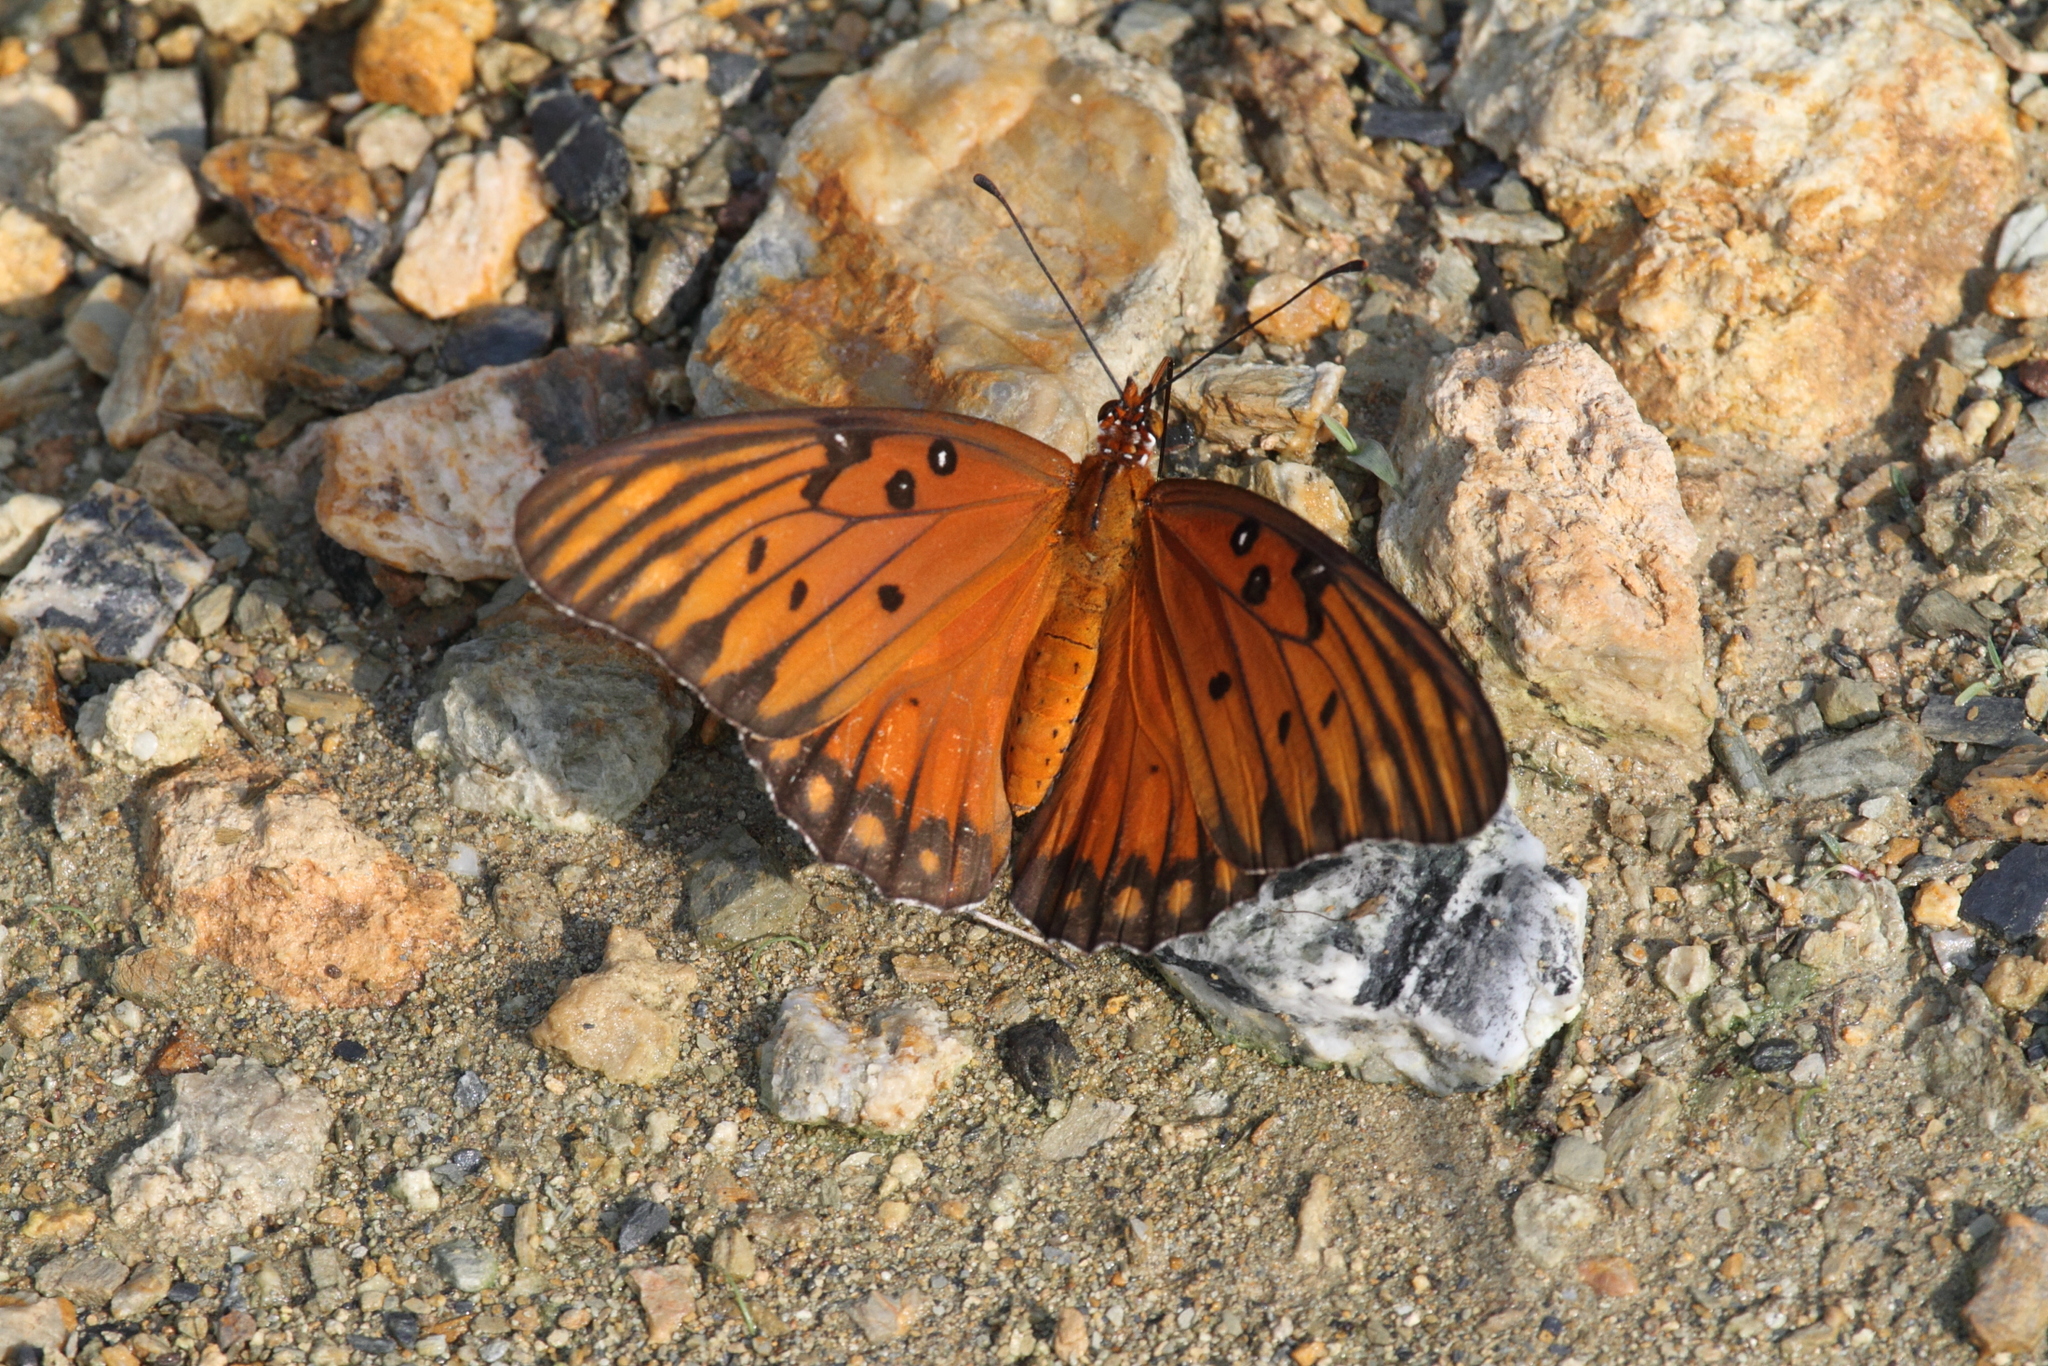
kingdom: Animalia
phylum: Arthropoda
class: Insecta
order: Lepidoptera
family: Nymphalidae
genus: Dione
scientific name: Dione vanillae
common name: Gulf fritillary
